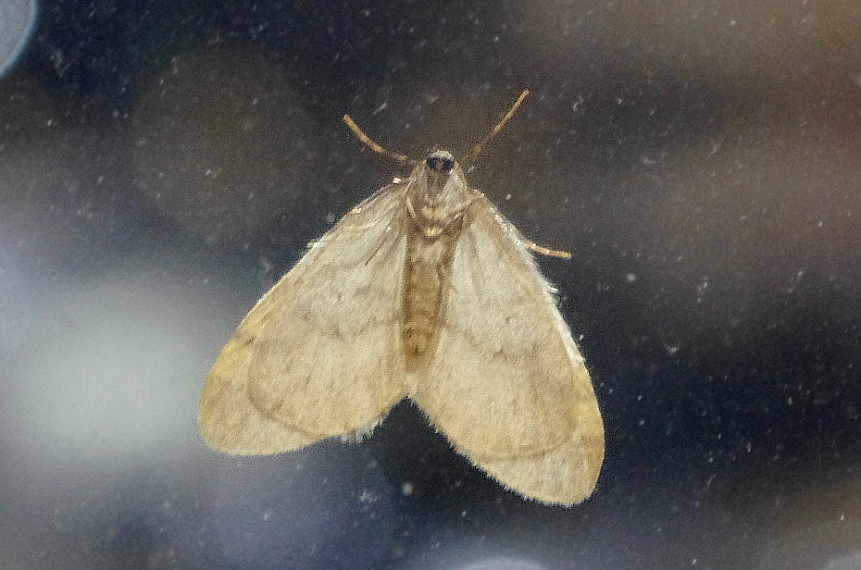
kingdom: Animalia
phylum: Arthropoda
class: Insecta
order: Lepidoptera
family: Geometridae
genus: Operophtera
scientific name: Operophtera fagata
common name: Northern winter moth
